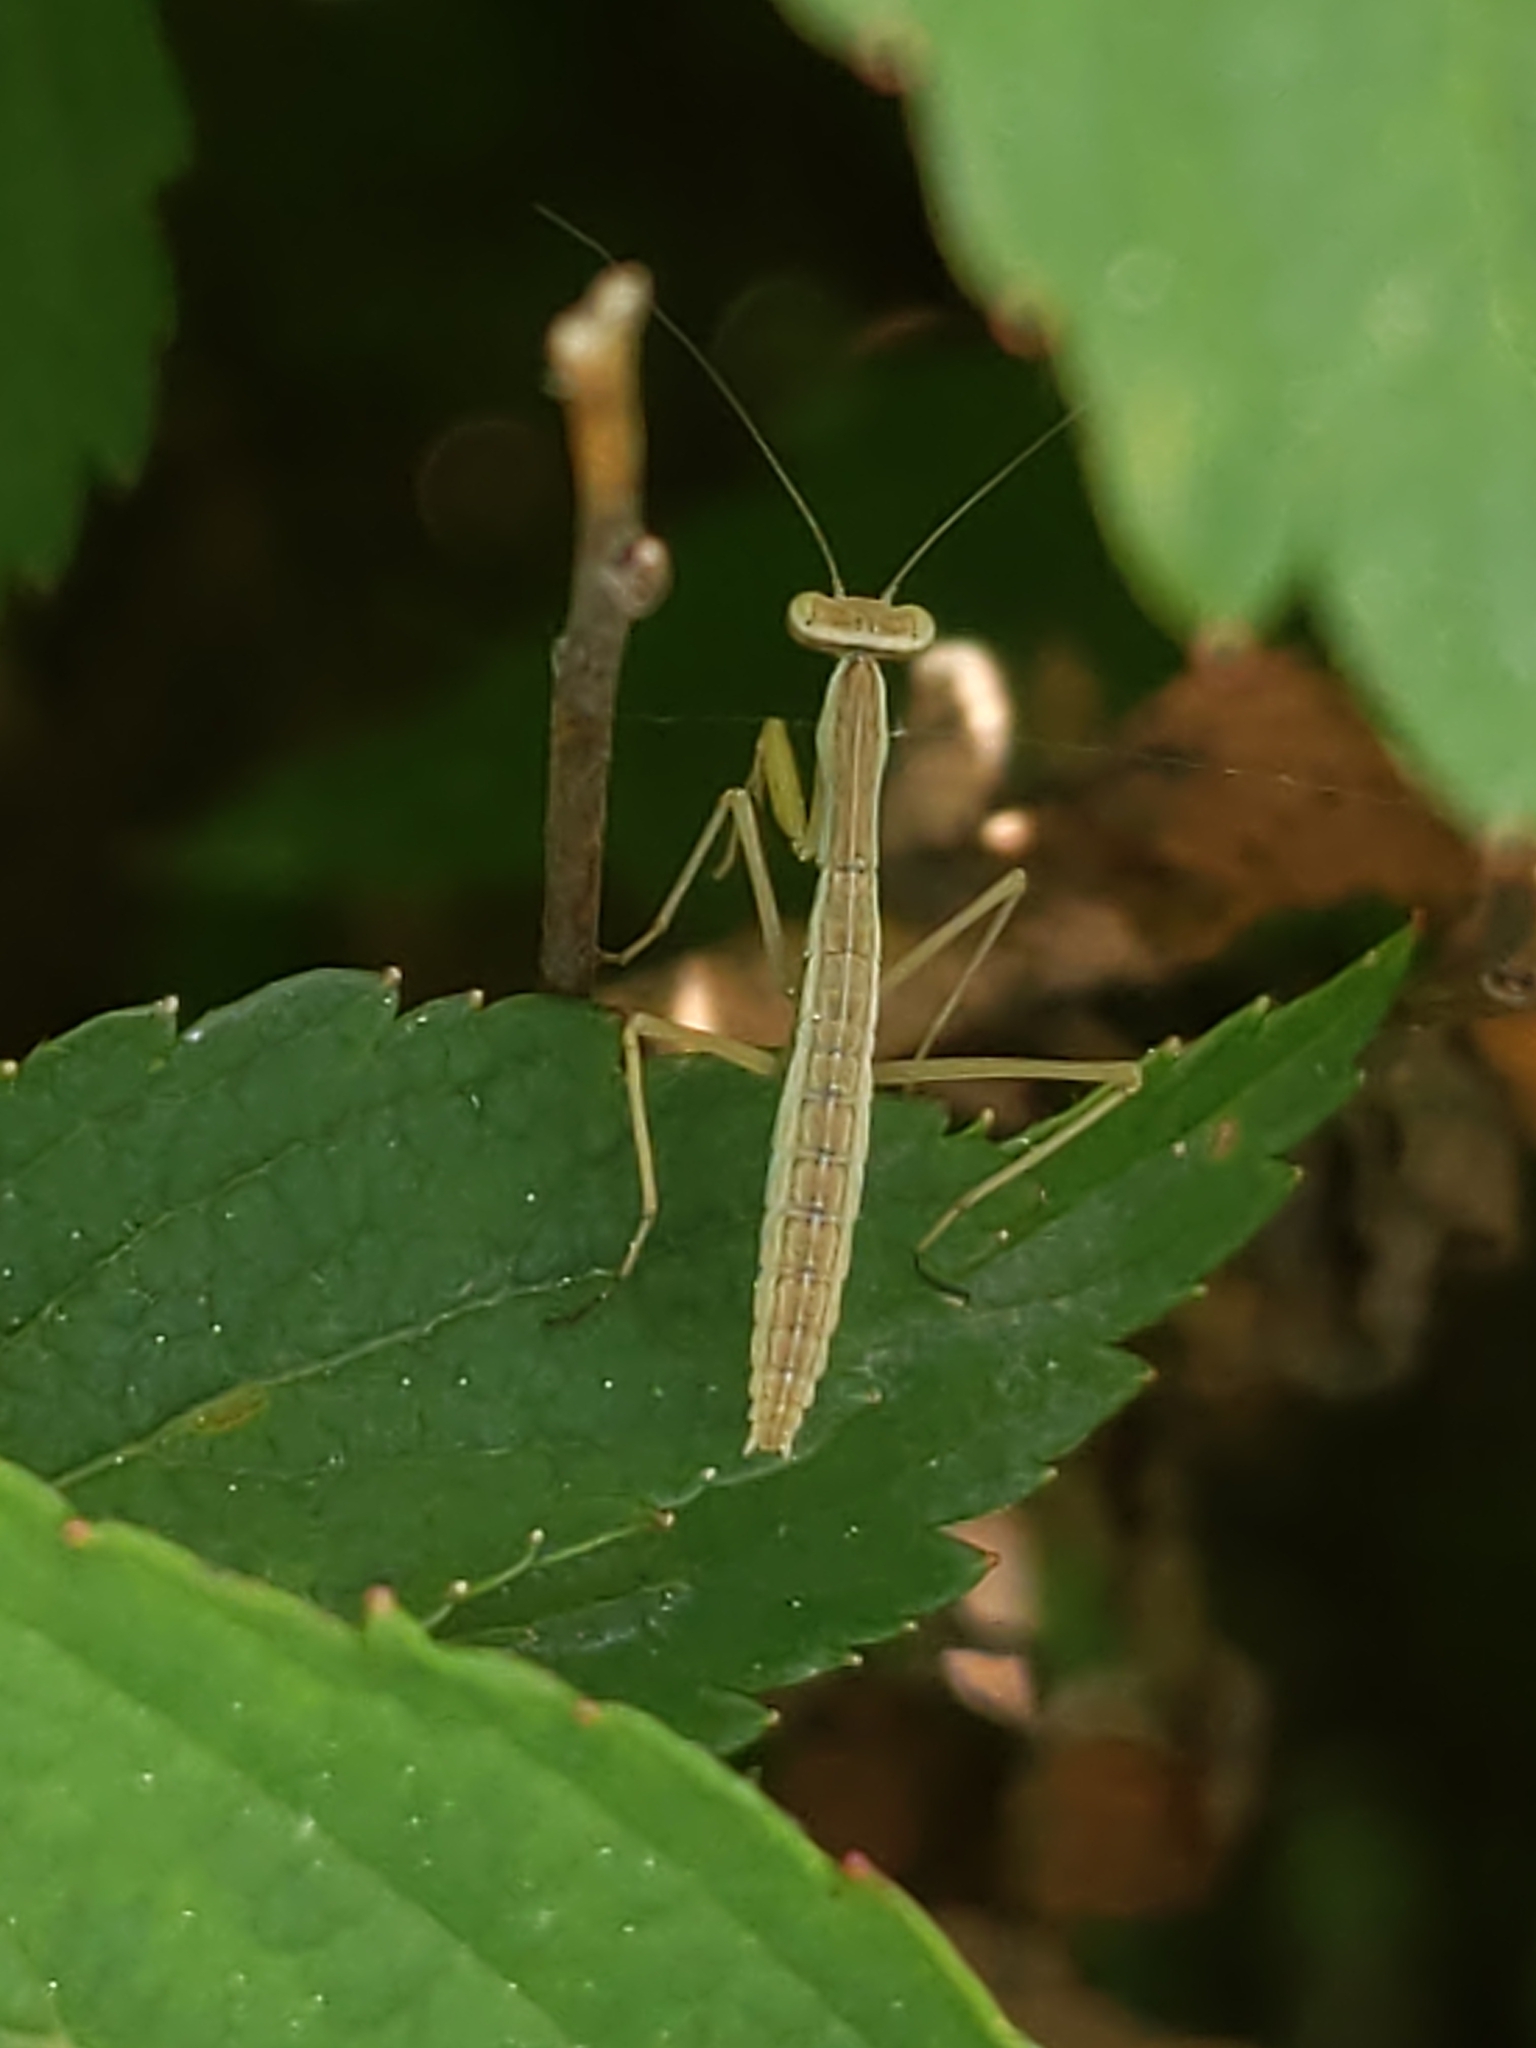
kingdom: Animalia
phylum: Arthropoda
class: Insecta
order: Mantodea
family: Mantidae
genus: Tenodera
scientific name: Tenodera sinensis
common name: Chinese mantis
